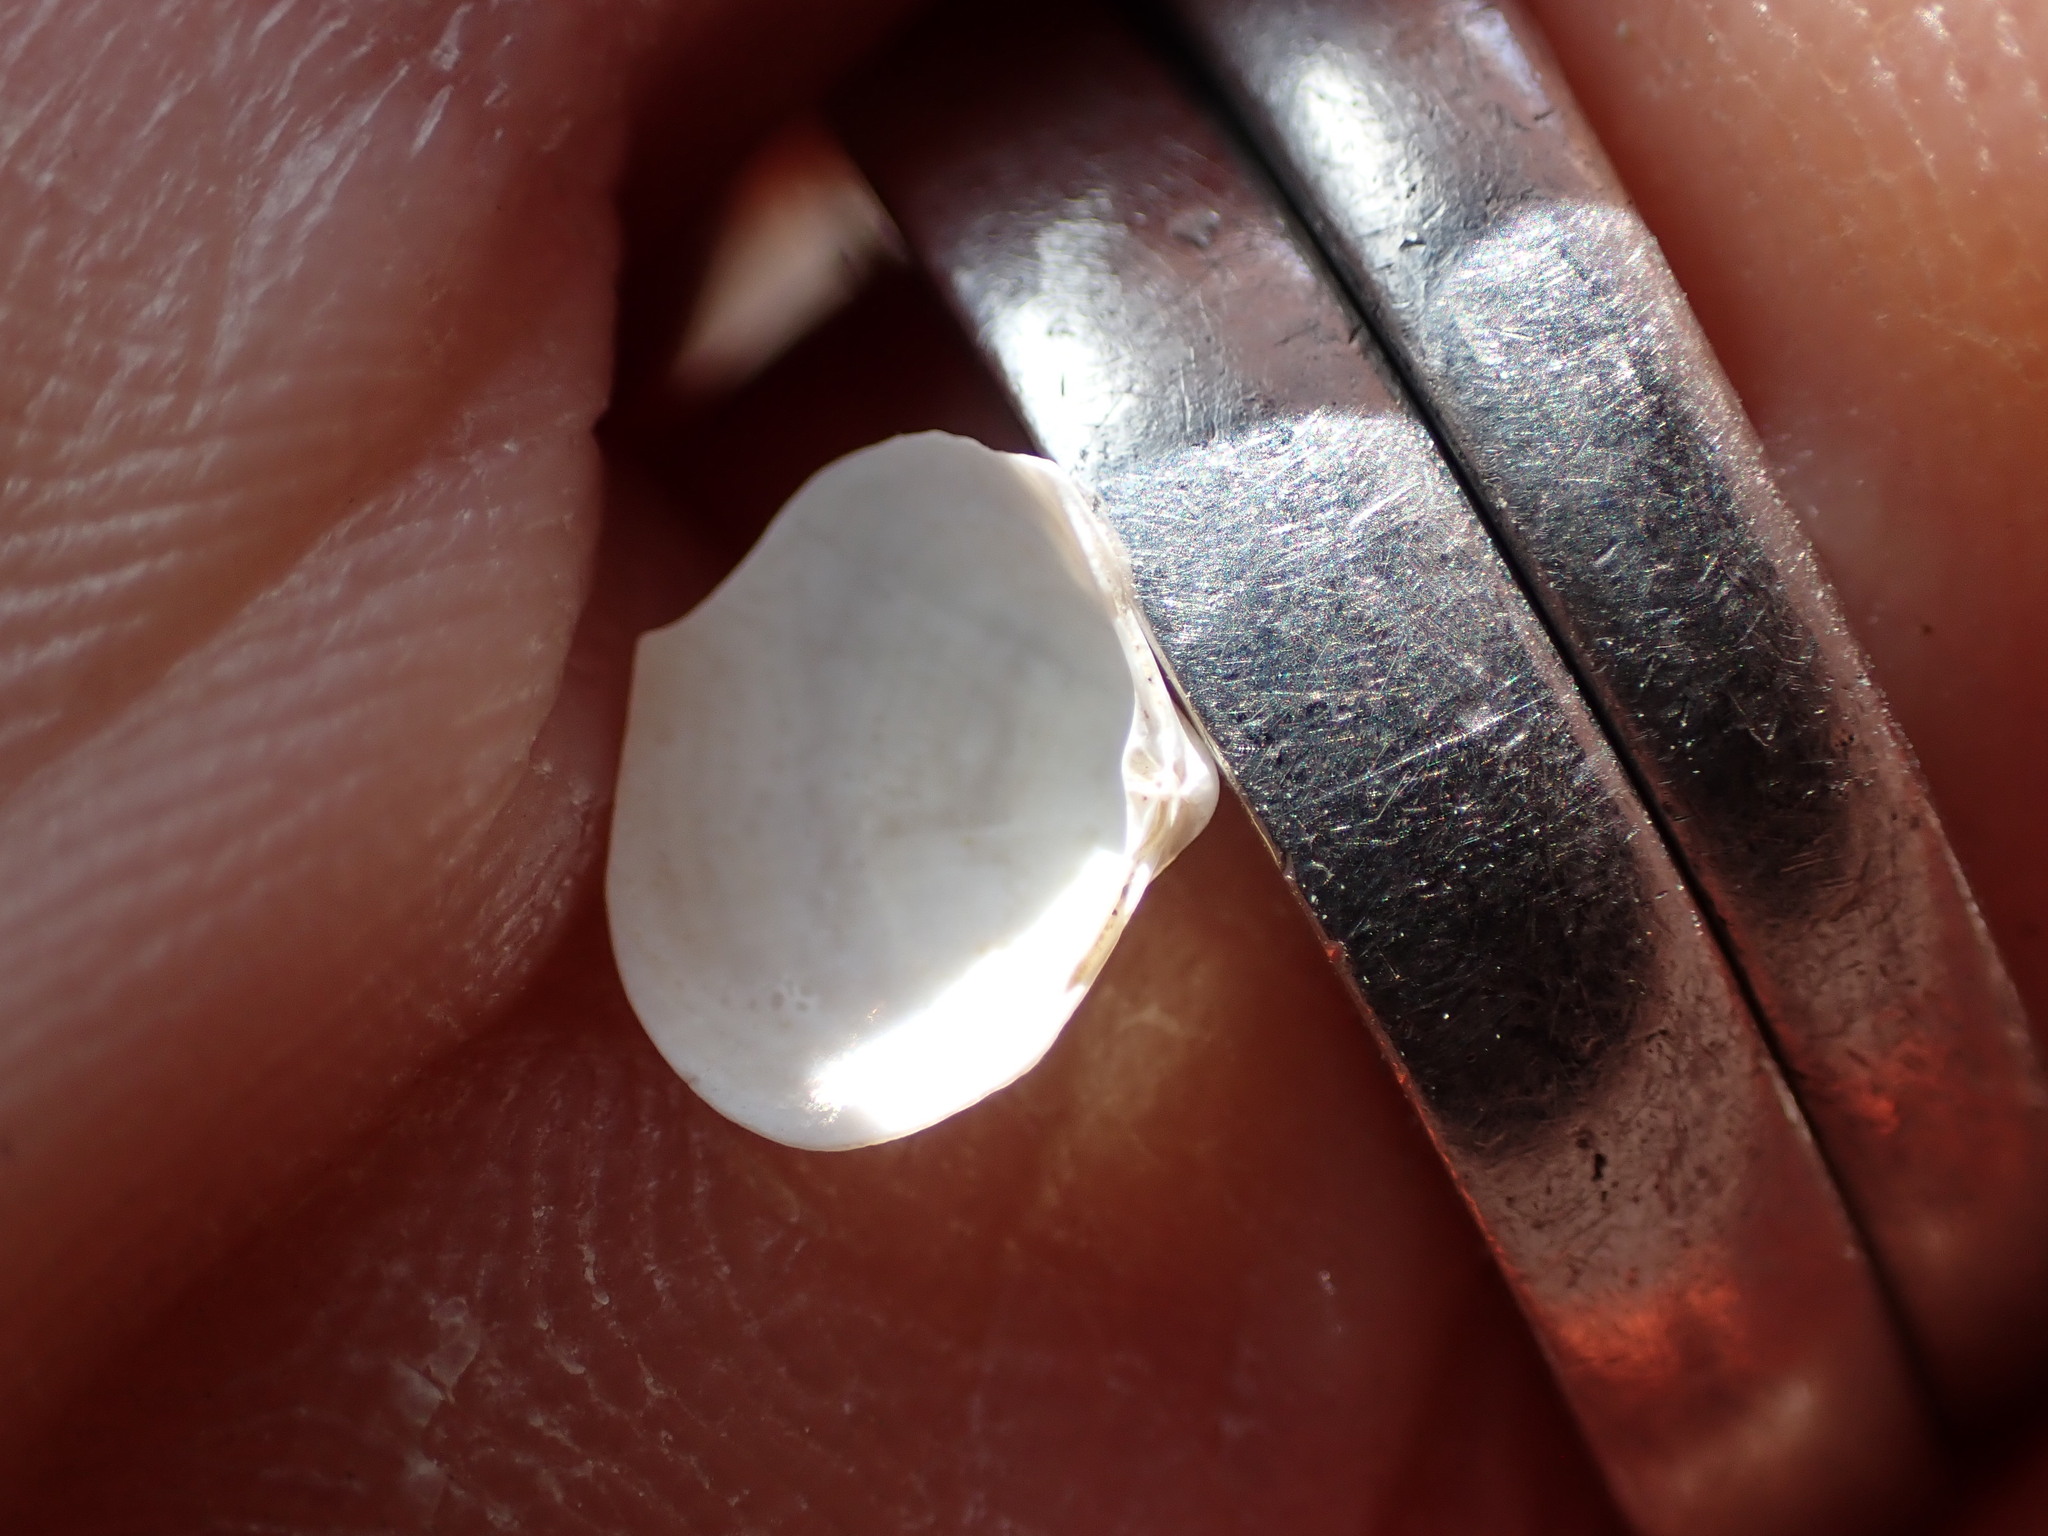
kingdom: Animalia
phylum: Mollusca
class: Bivalvia
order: Venerida
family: Mactridae
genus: Maorimactra
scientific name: Maorimactra ordinaria
